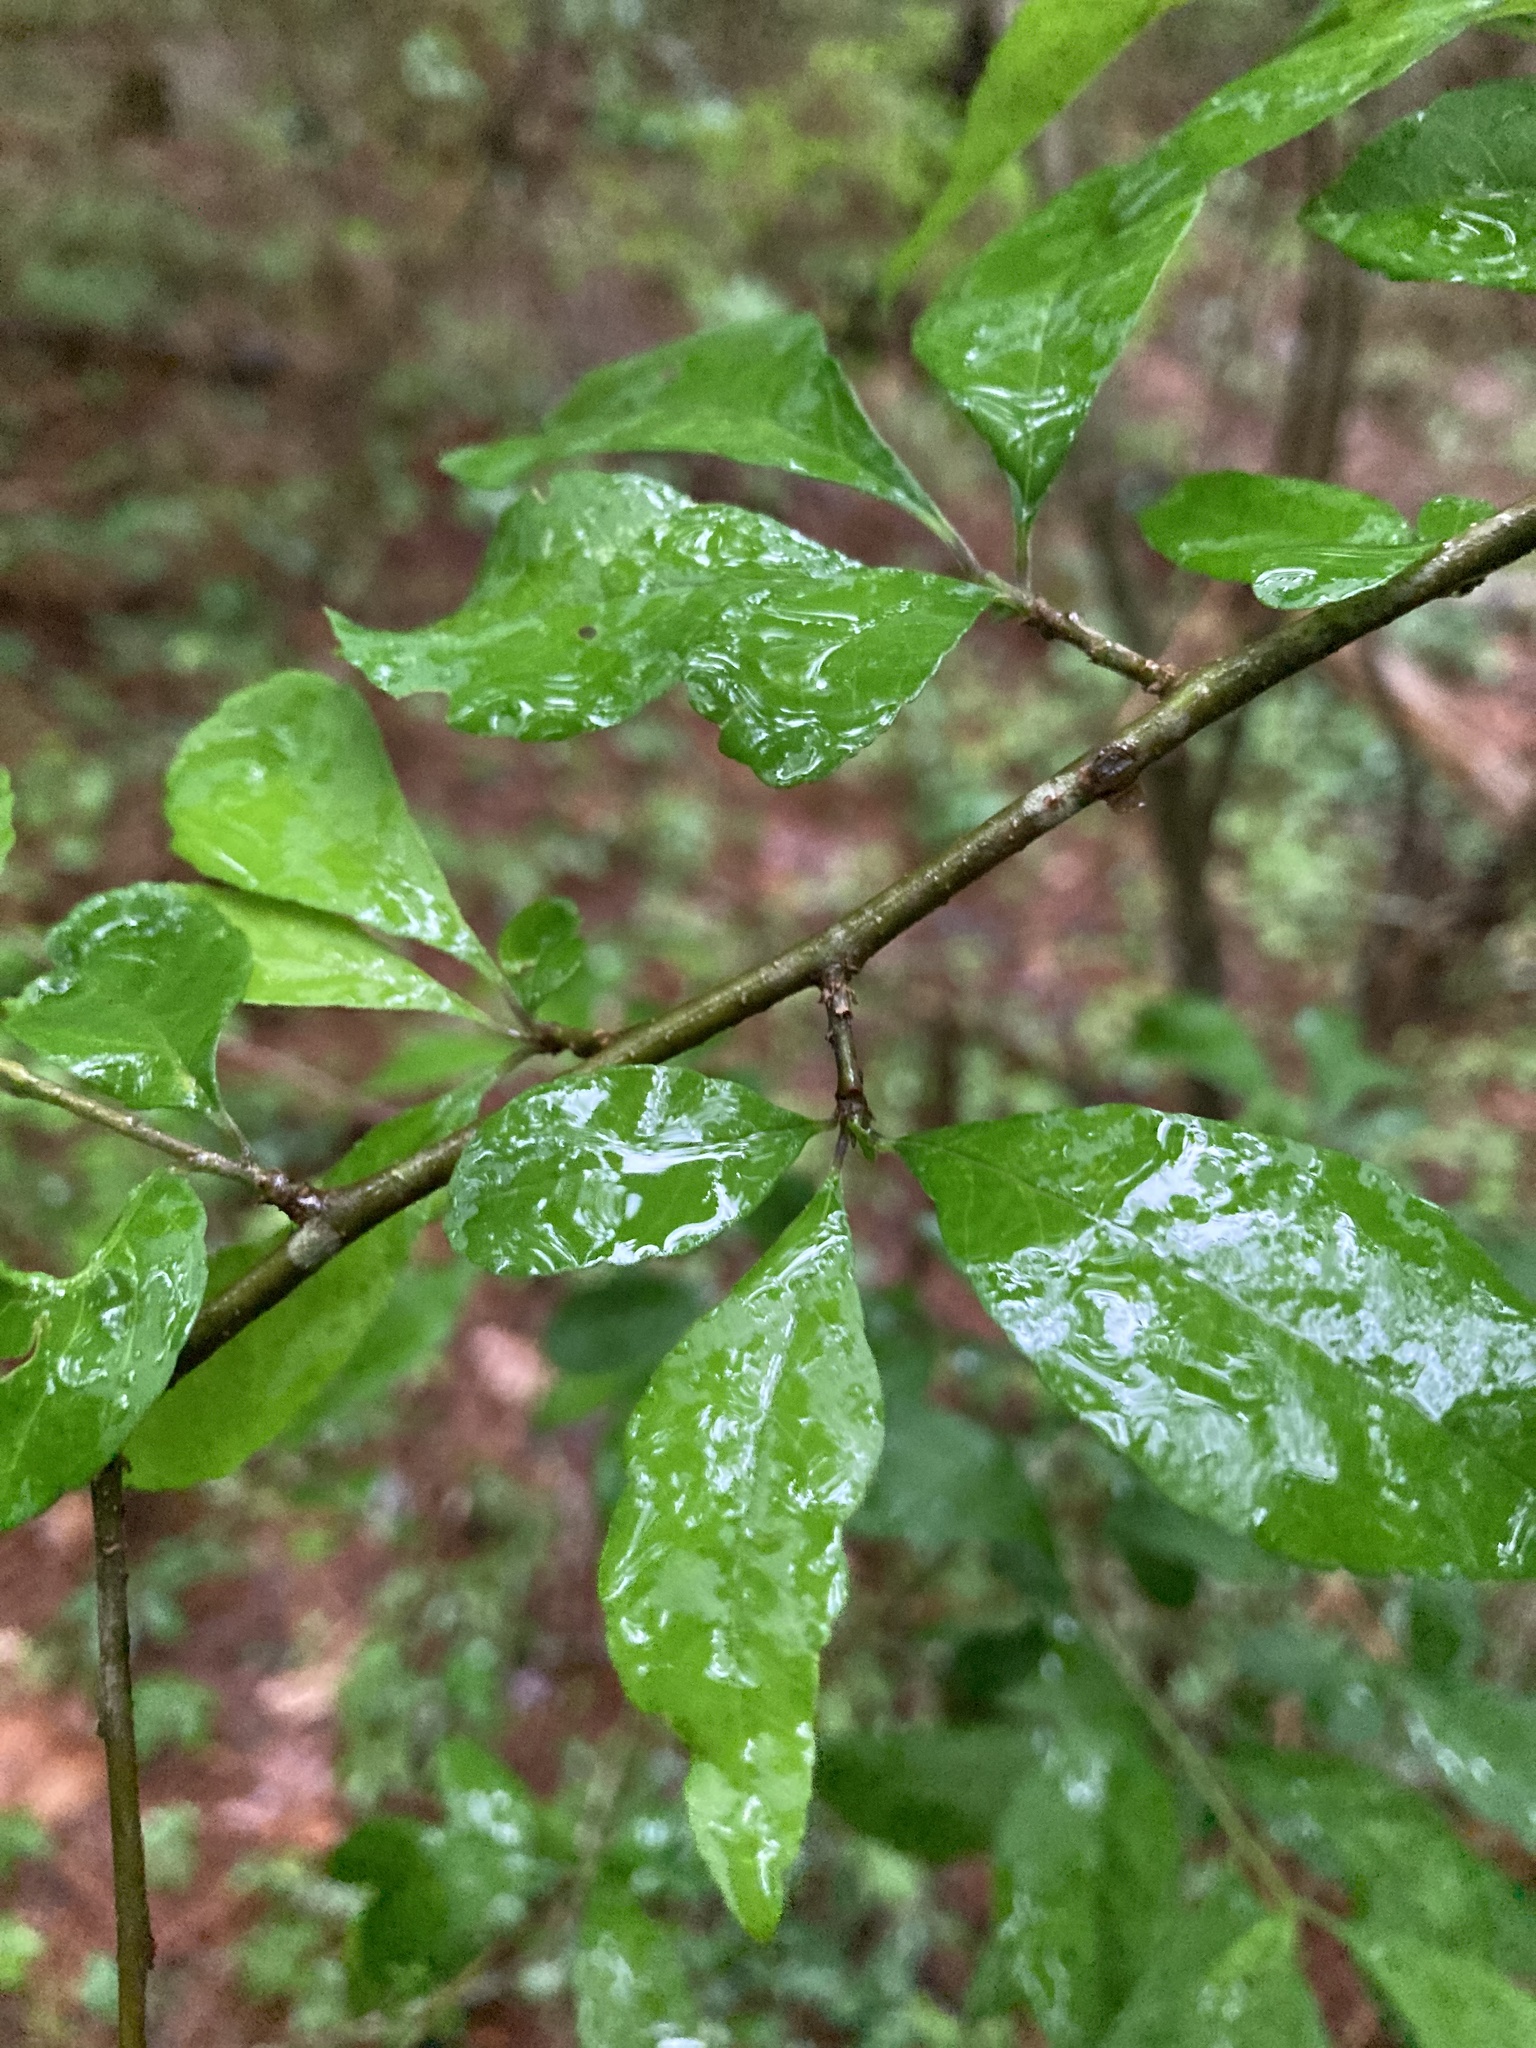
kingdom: Plantae
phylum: Tracheophyta
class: Magnoliopsida
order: Aquifoliales
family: Aquifoliaceae
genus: Ilex
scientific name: Ilex decidua
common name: Possum-haw
